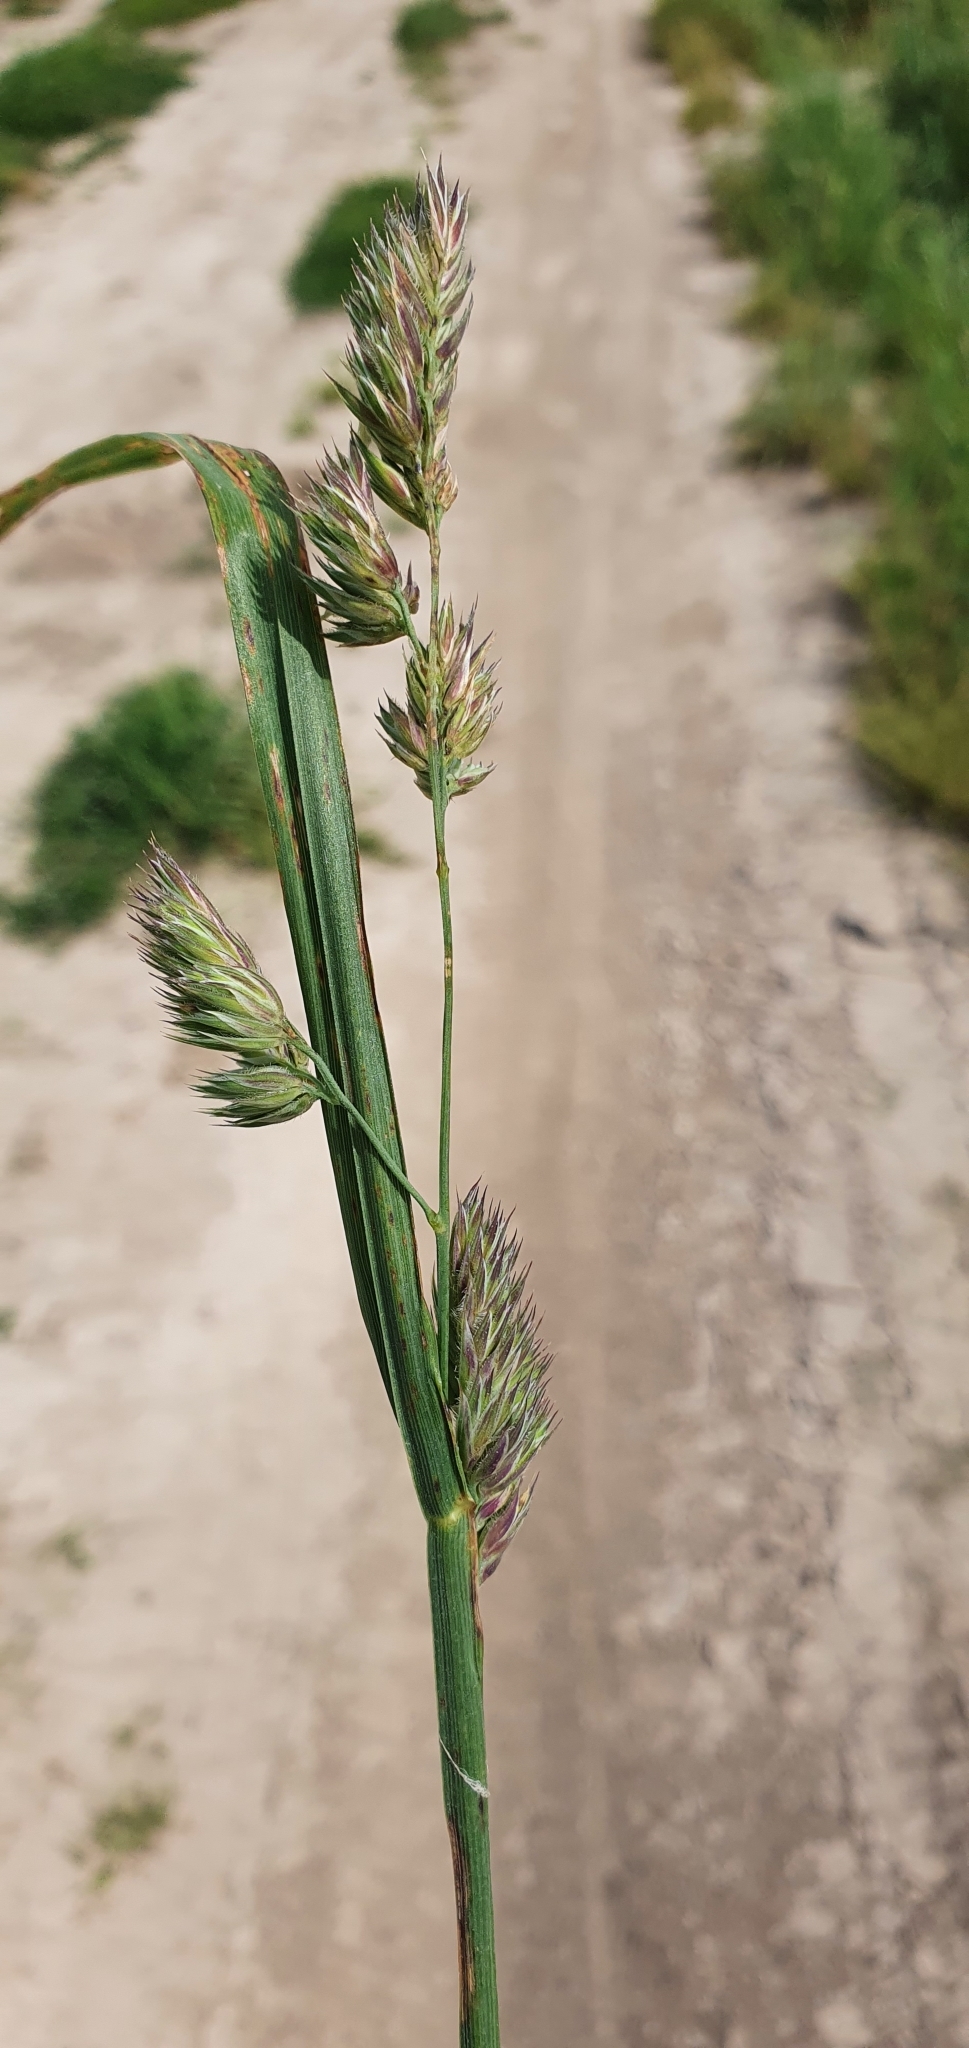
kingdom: Plantae
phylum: Tracheophyta
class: Liliopsida
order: Poales
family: Poaceae
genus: Dactylis
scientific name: Dactylis glomerata
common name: Orchardgrass
